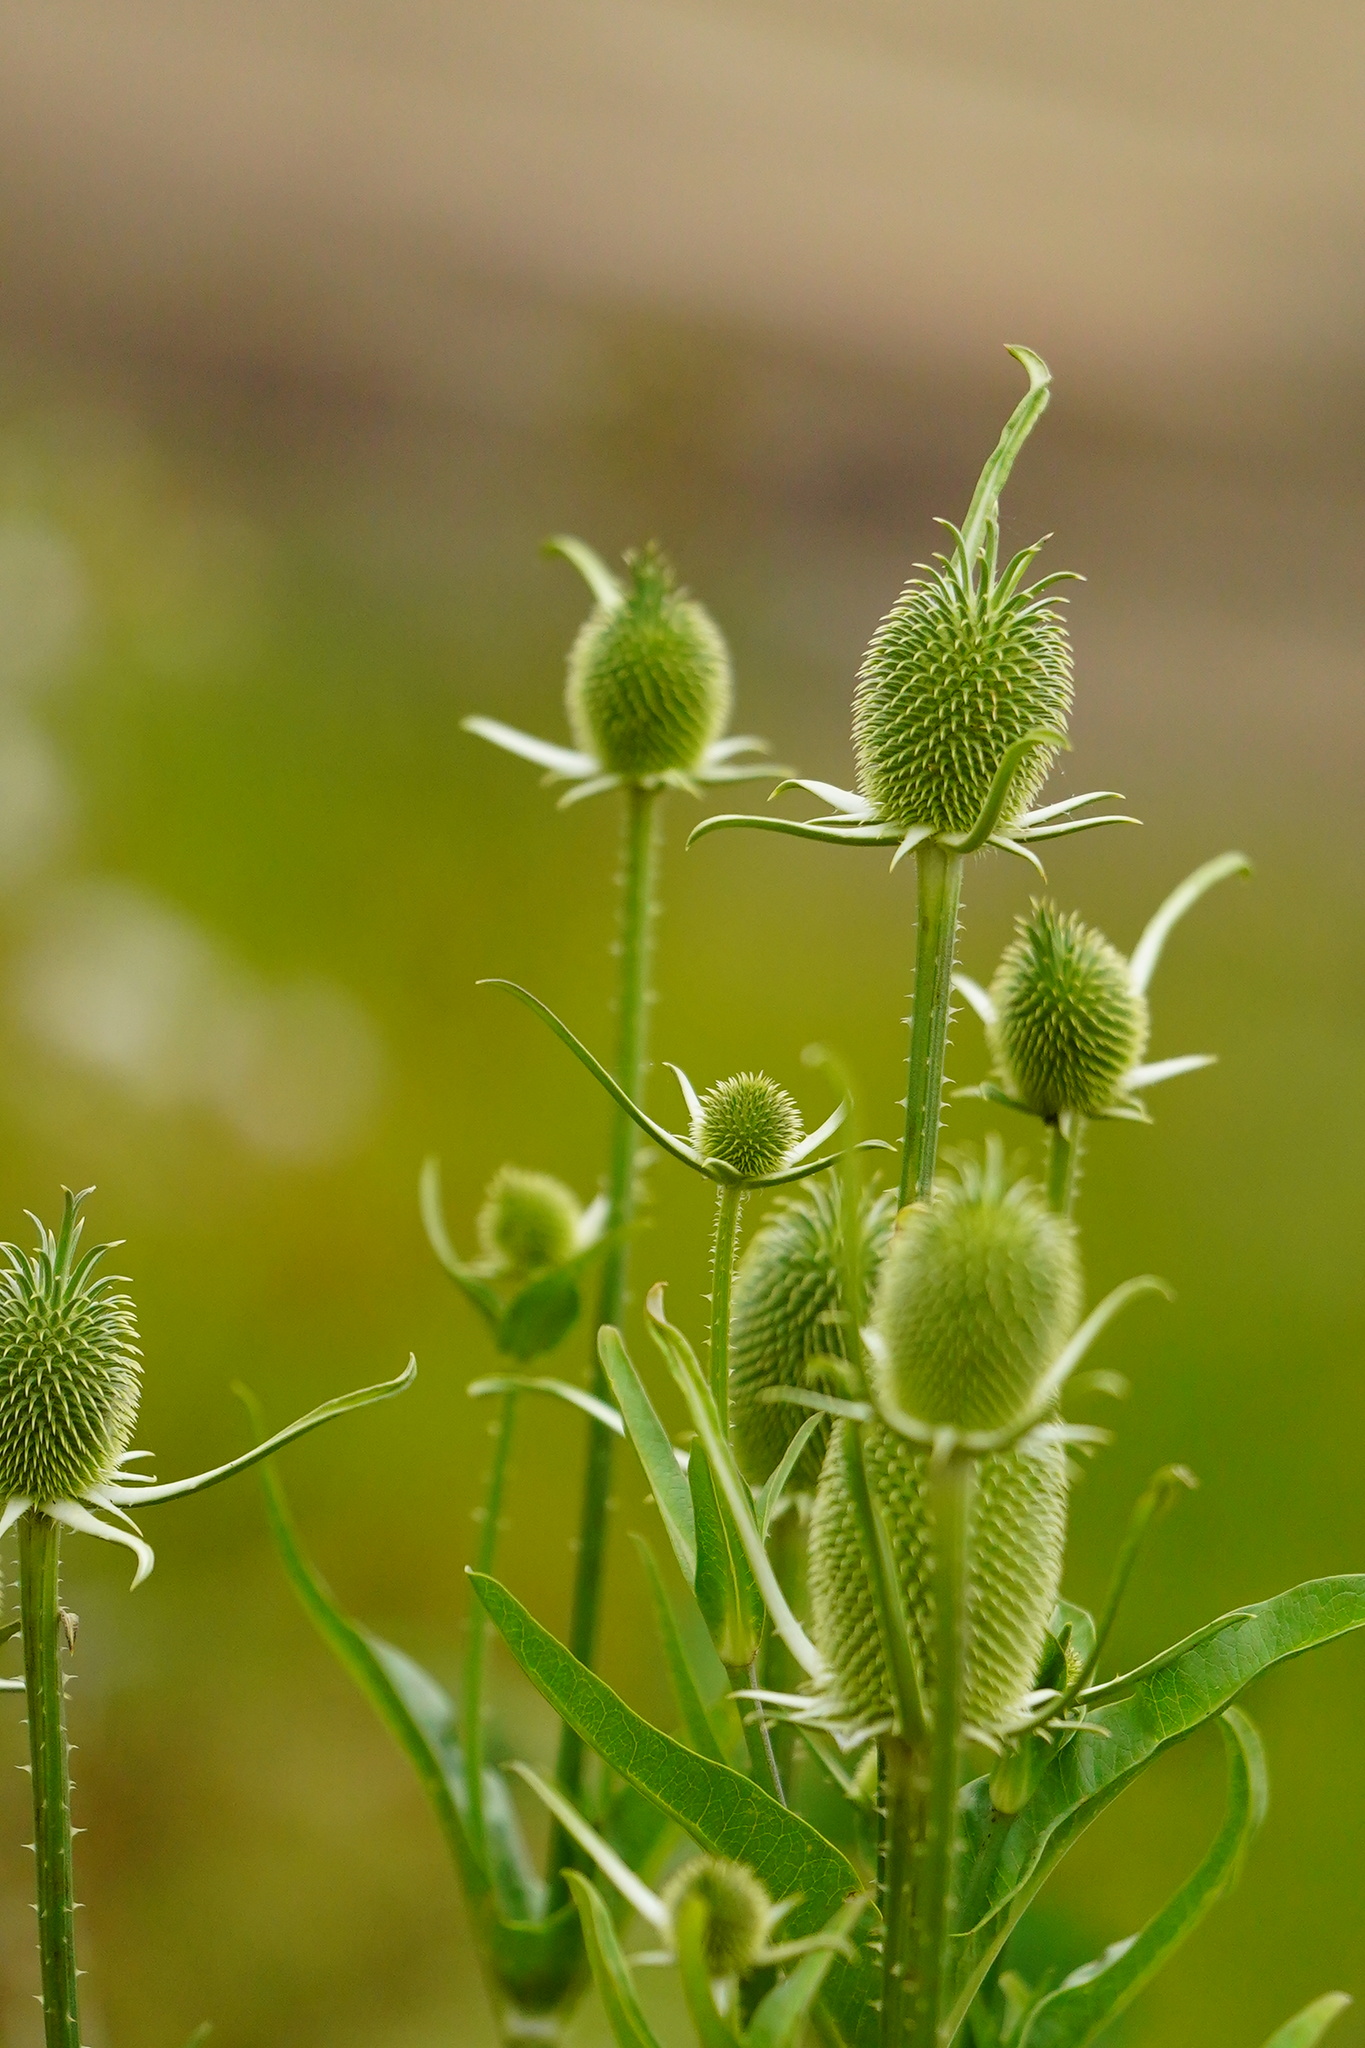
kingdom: Plantae
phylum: Tracheophyta
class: Magnoliopsida
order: Dipsacales
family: Caprifoliaceae
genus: Dipsacus
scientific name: Dipsacus sativus
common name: Fuller's teasel
